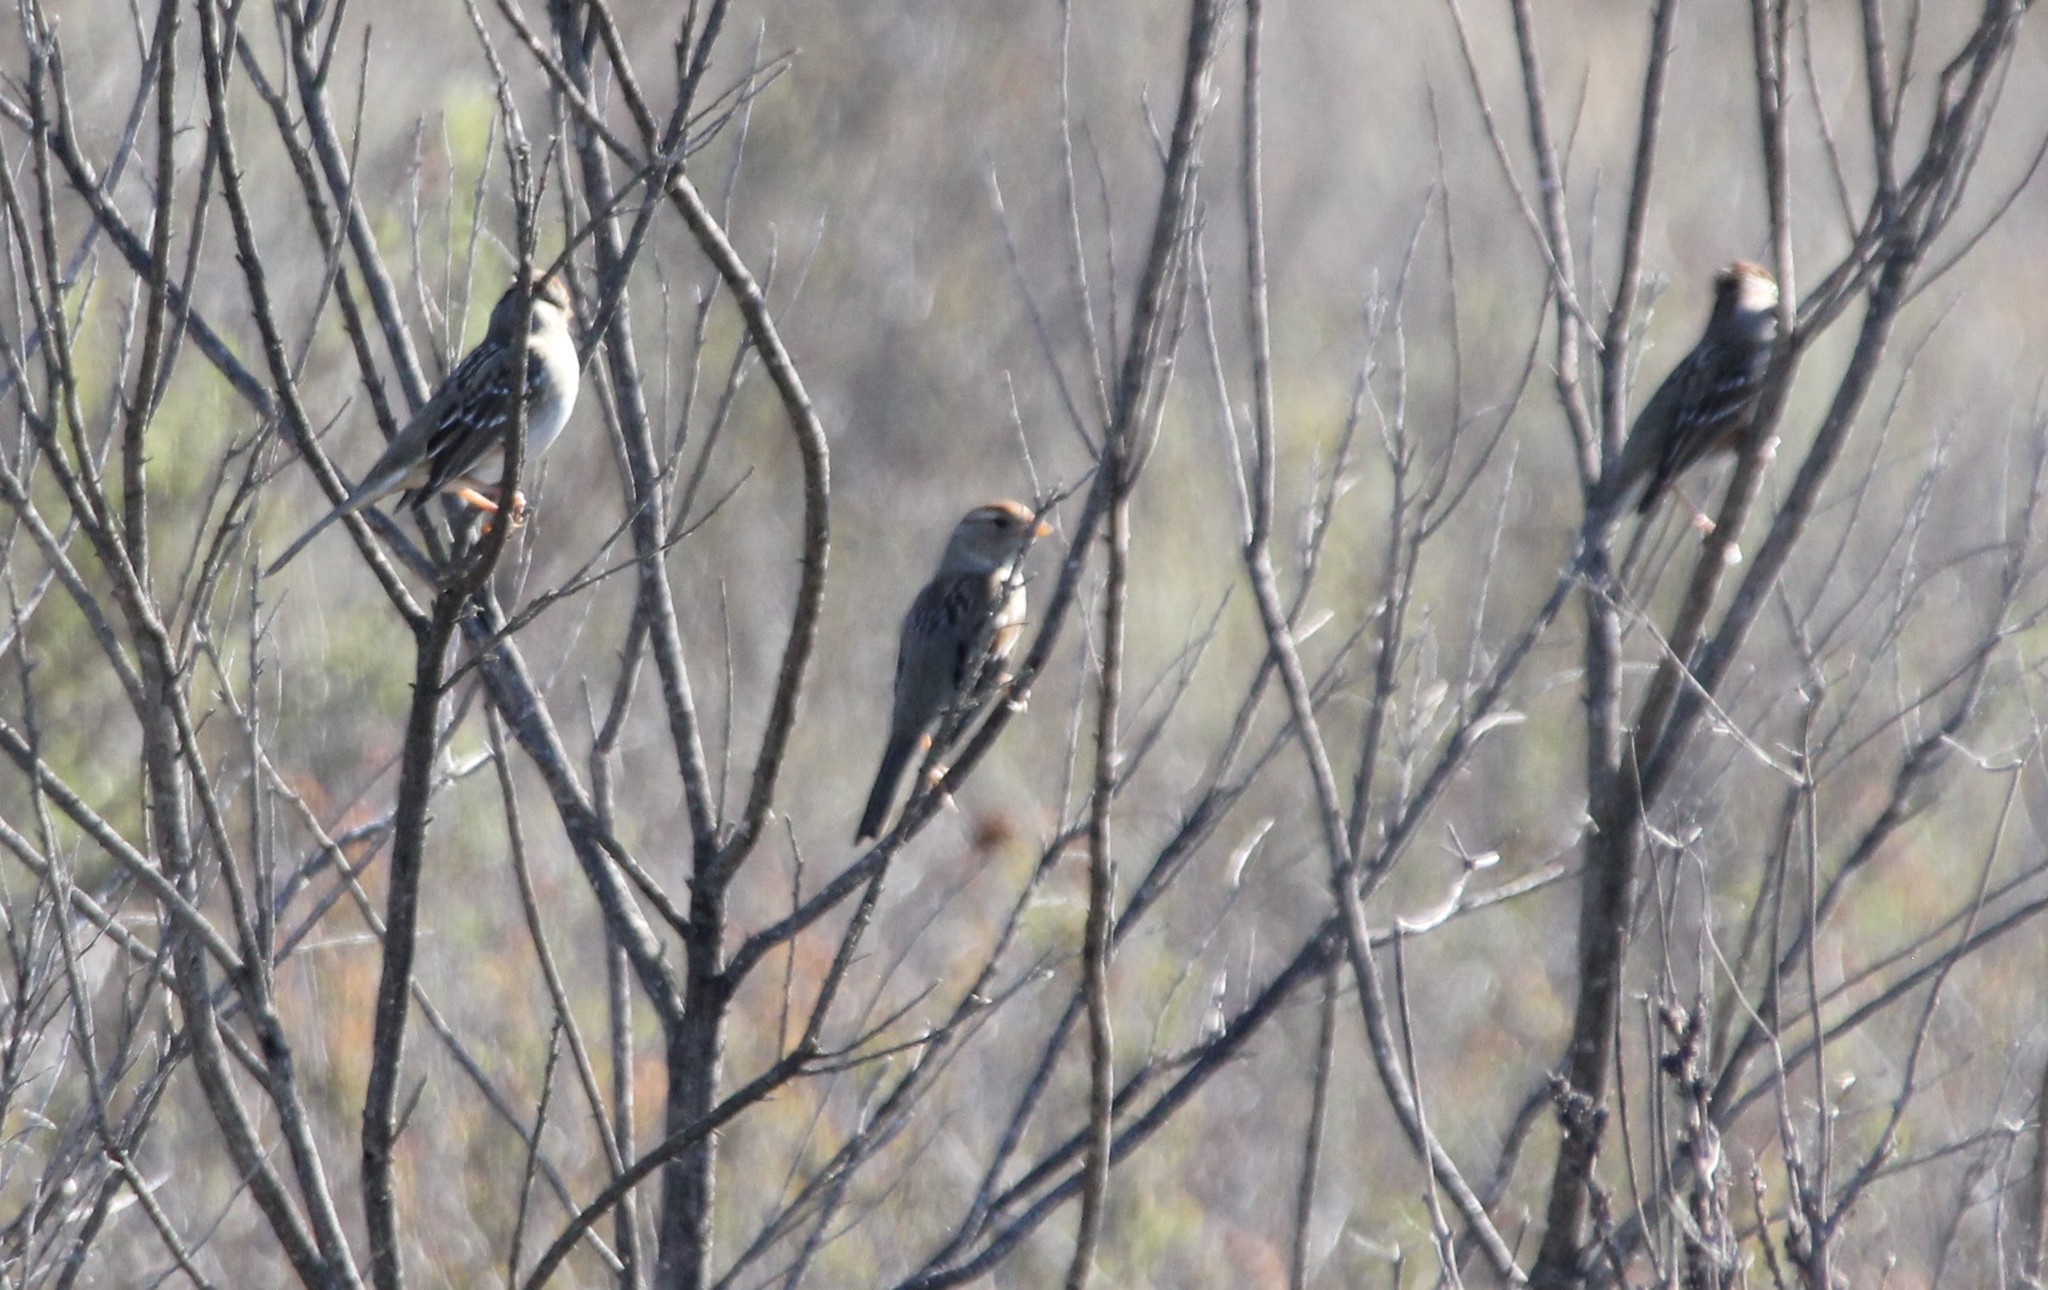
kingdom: Animalia
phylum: Chordata
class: Aves
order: Passeriformes
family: Passerellidae
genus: Zonotrichia
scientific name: Zonotrichia leucophrys
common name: White-crowned sparrow
